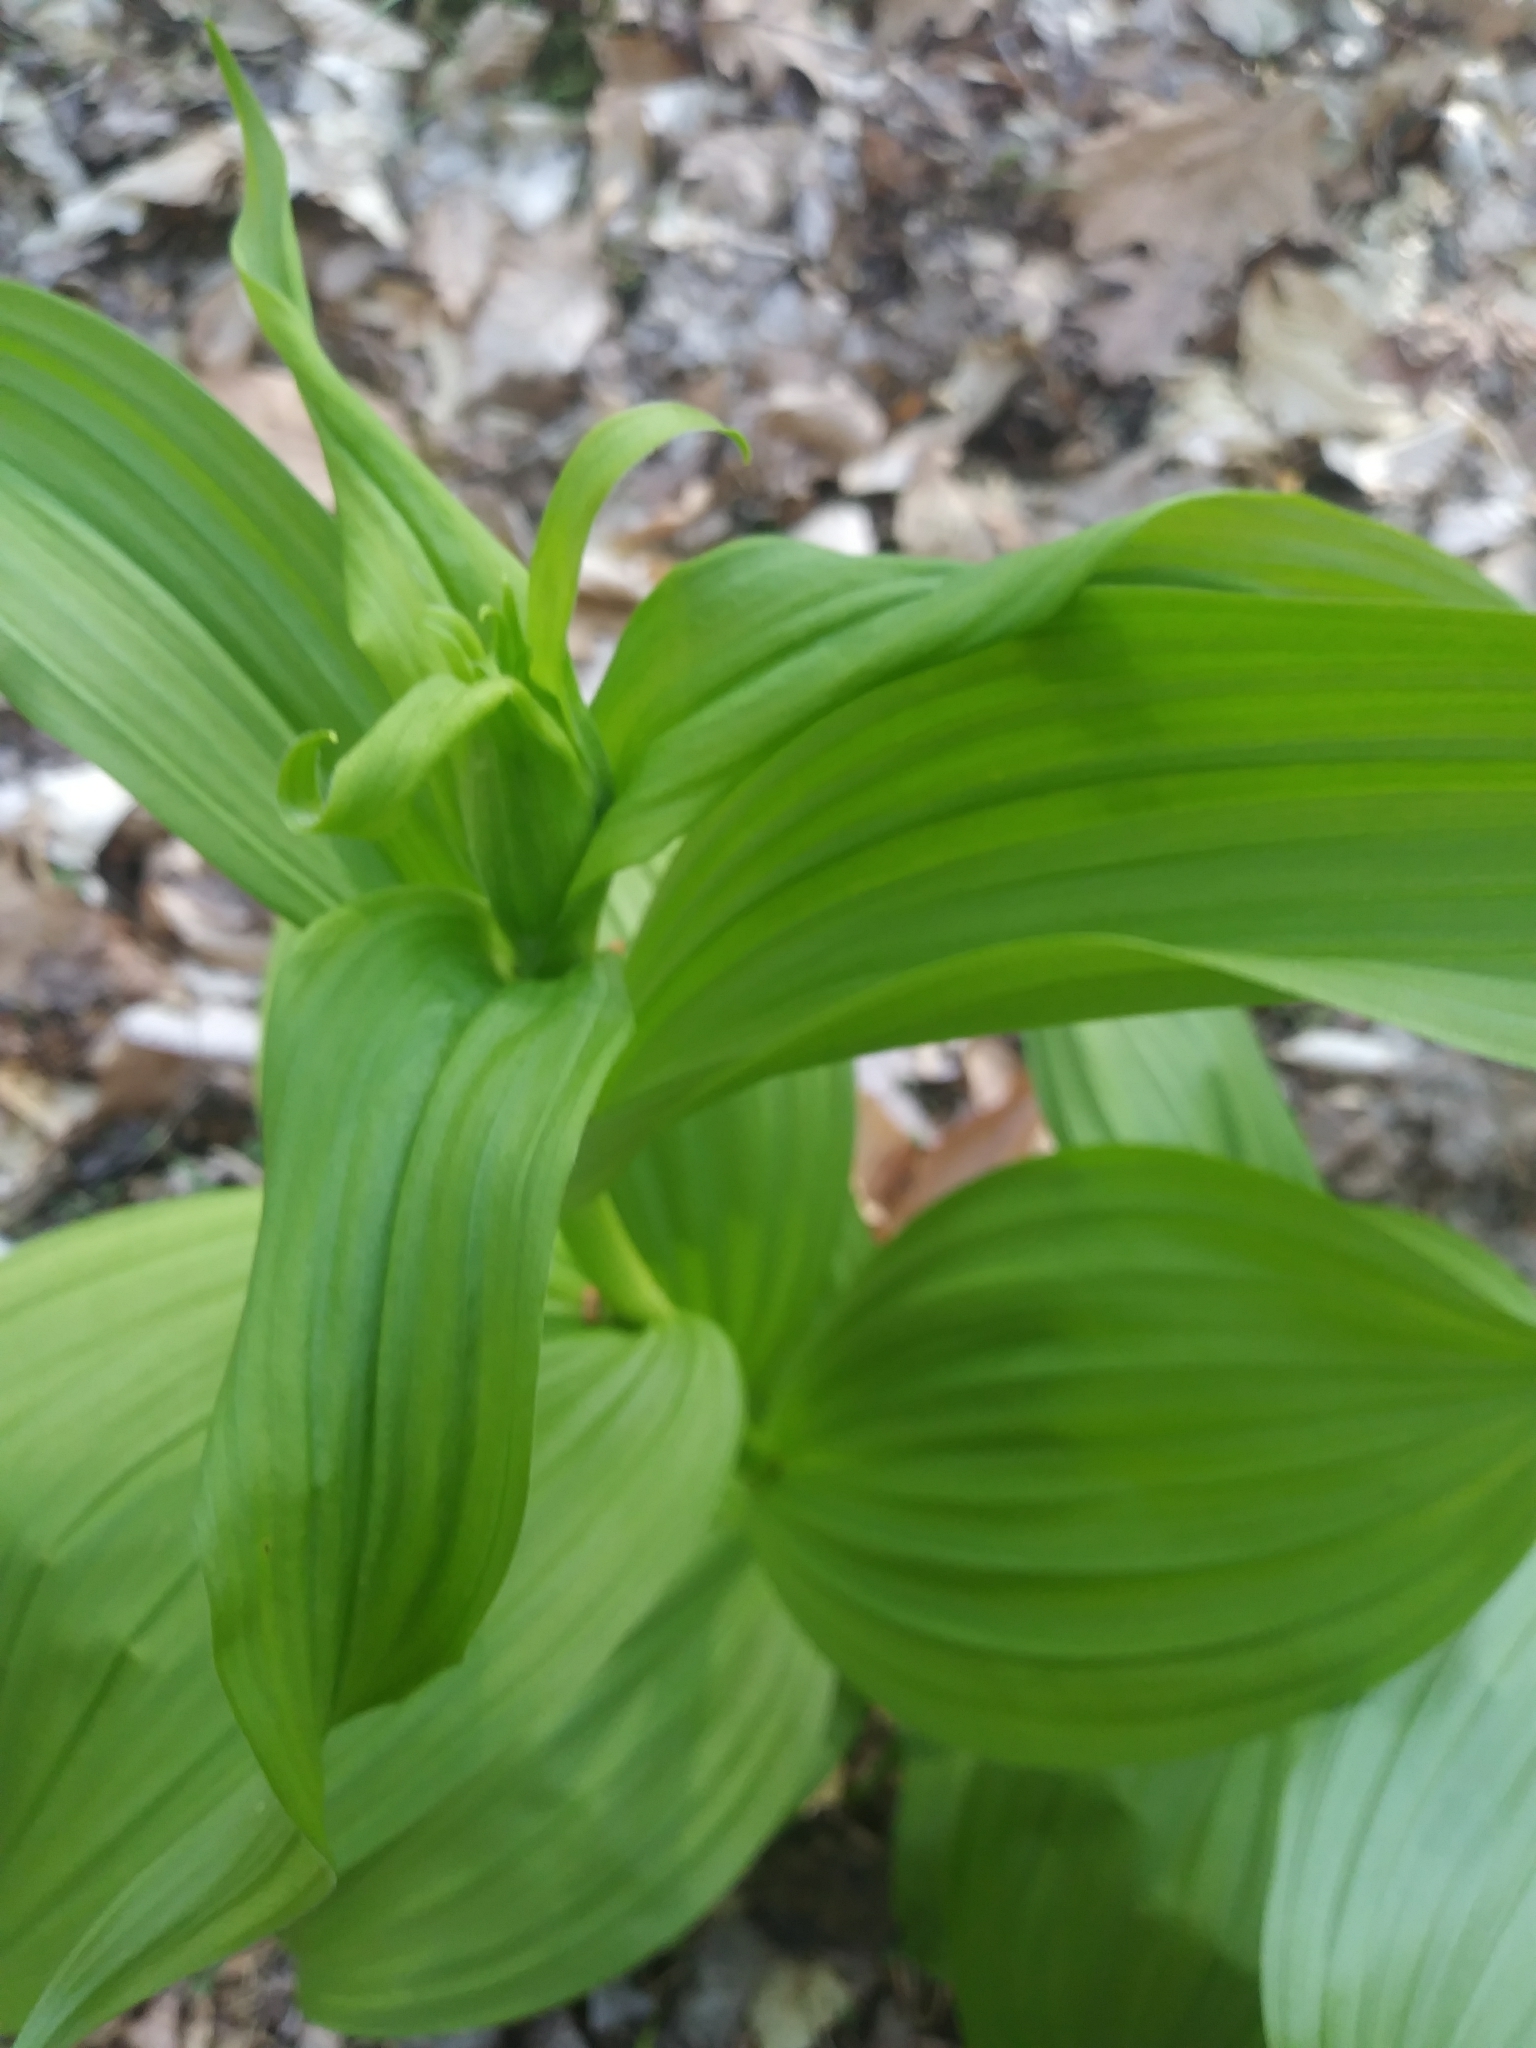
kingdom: Plantae
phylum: Tracheophyta
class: Liliopsida
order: Liliales
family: Melanthiaceae
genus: Veratrum
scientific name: Veratrum viride
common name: American false hellebore
